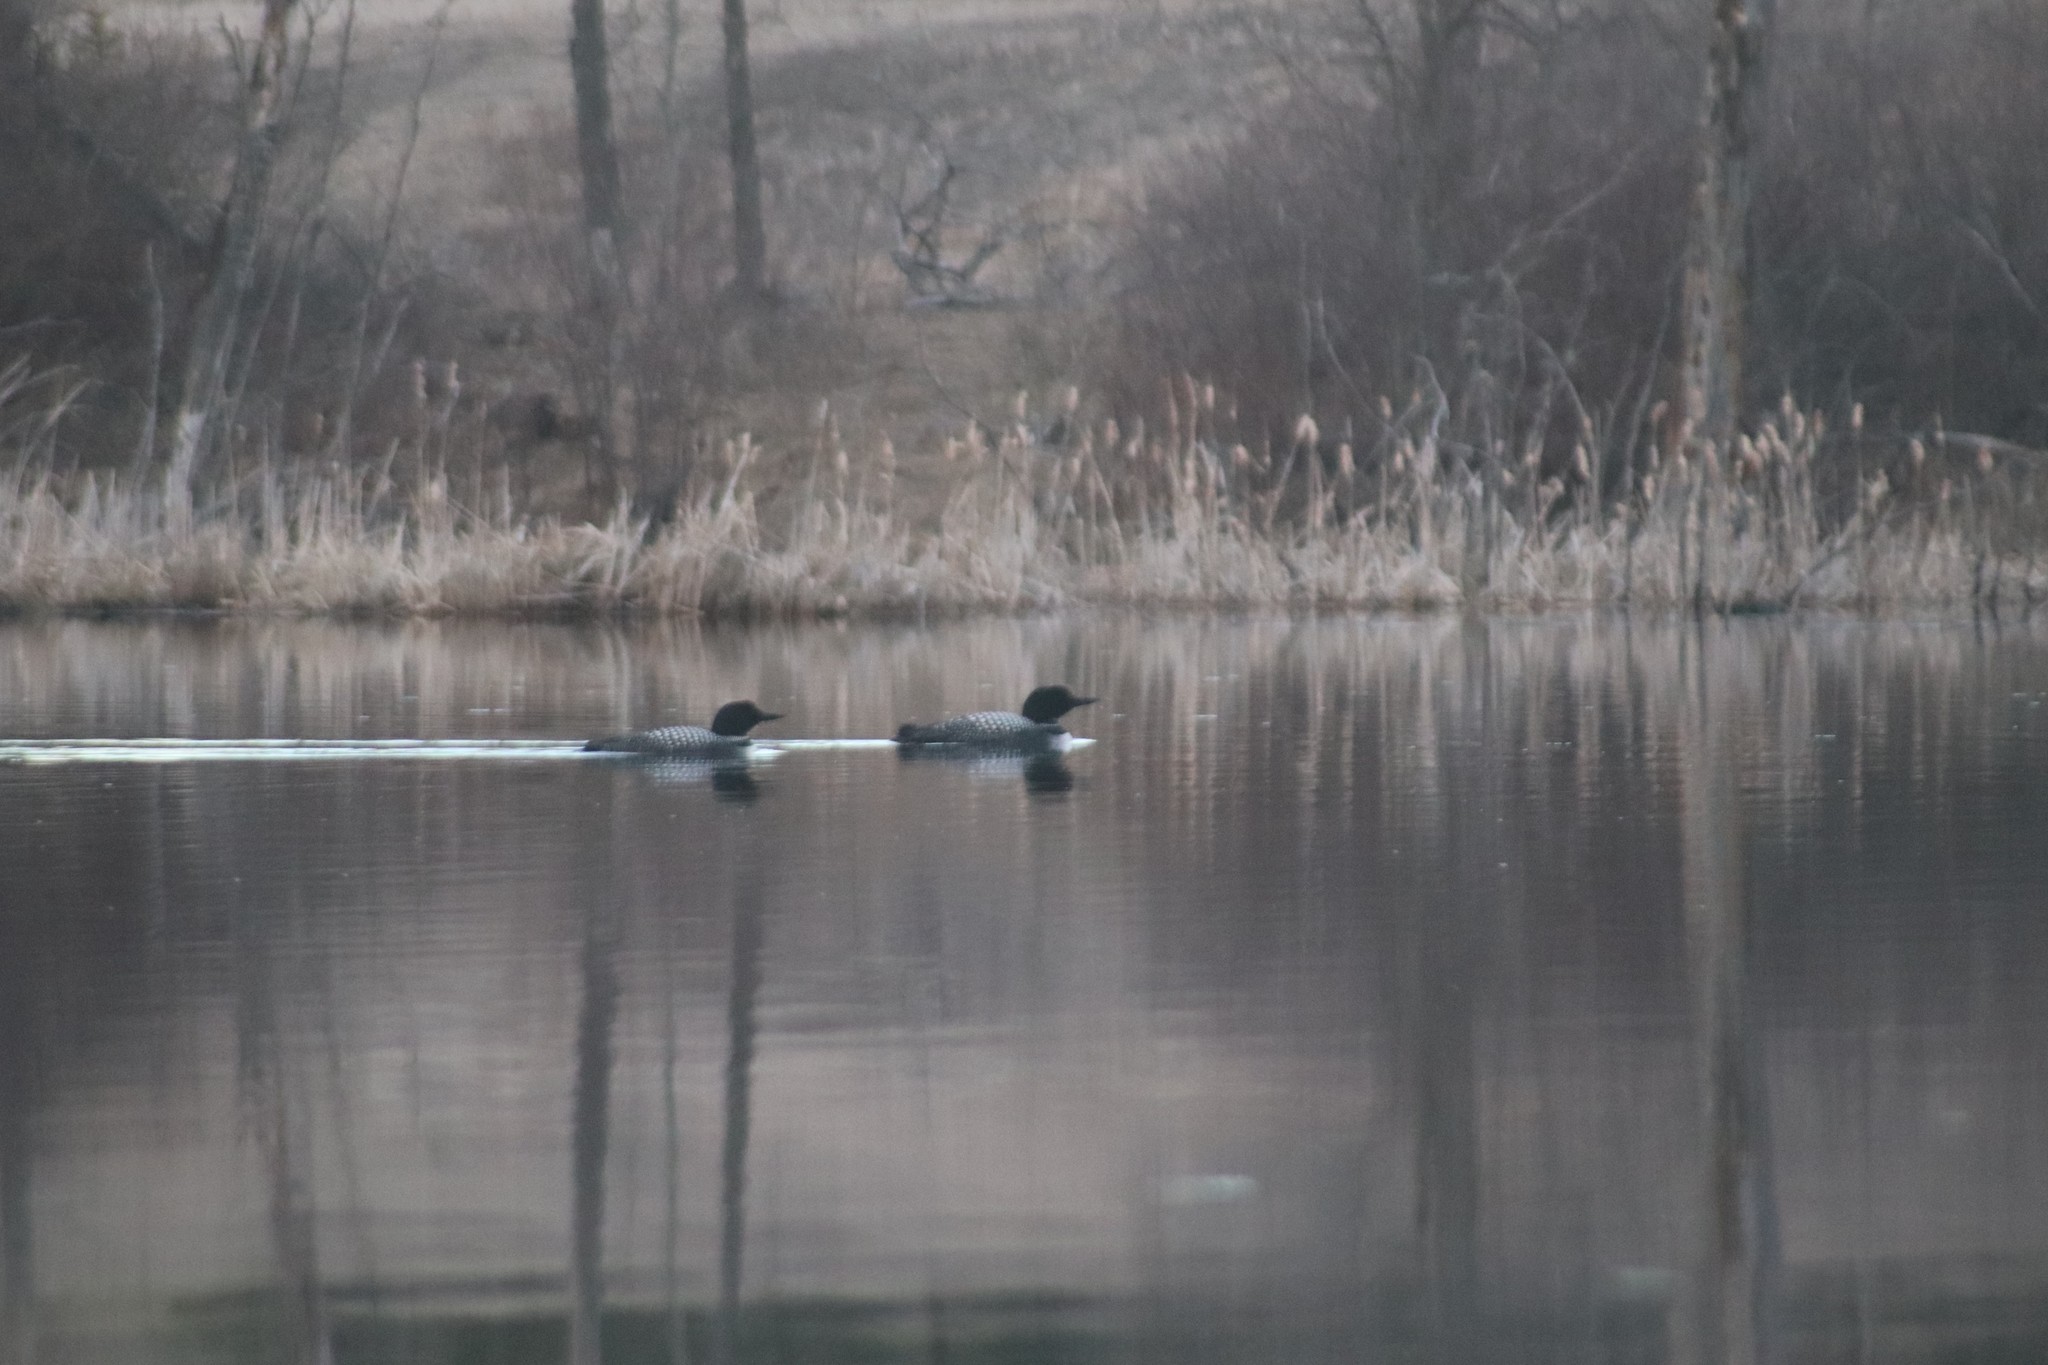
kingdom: Animalia
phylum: Chordata
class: Aves
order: Gaviiformes
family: Gaviidae
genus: Gavia
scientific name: Gavia immer
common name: Common loon
